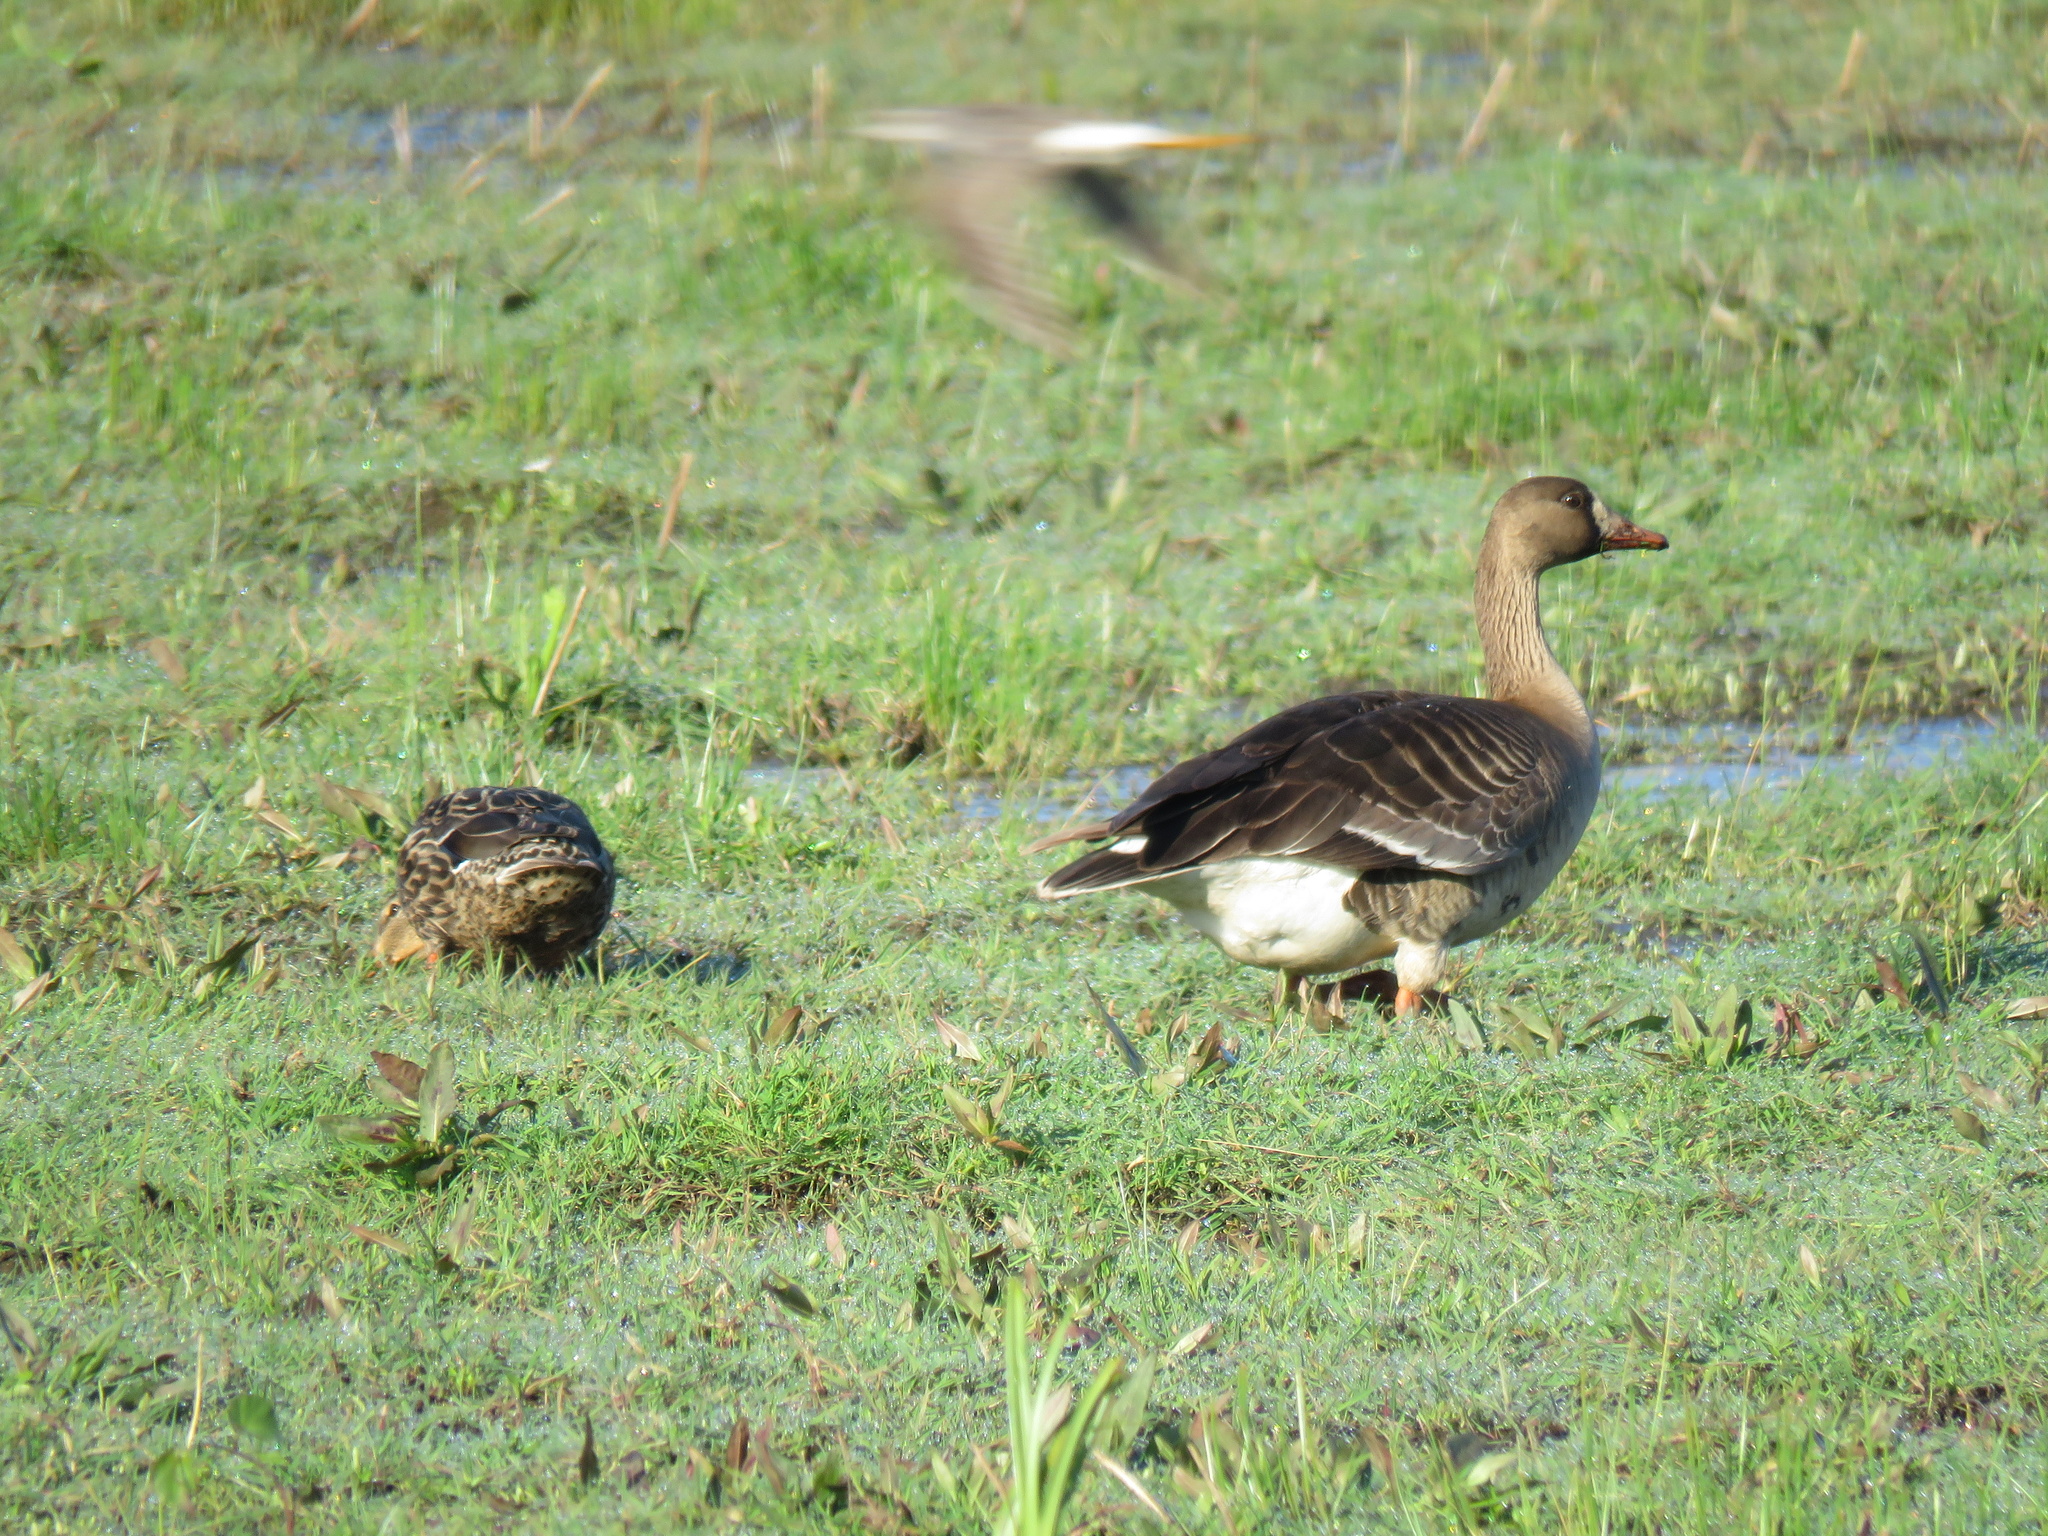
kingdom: Animalia
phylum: Chordata
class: Aves
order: Anseriformes
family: Anatidae
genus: Anser
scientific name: Anser albifrons
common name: Greater white-fronted goose
